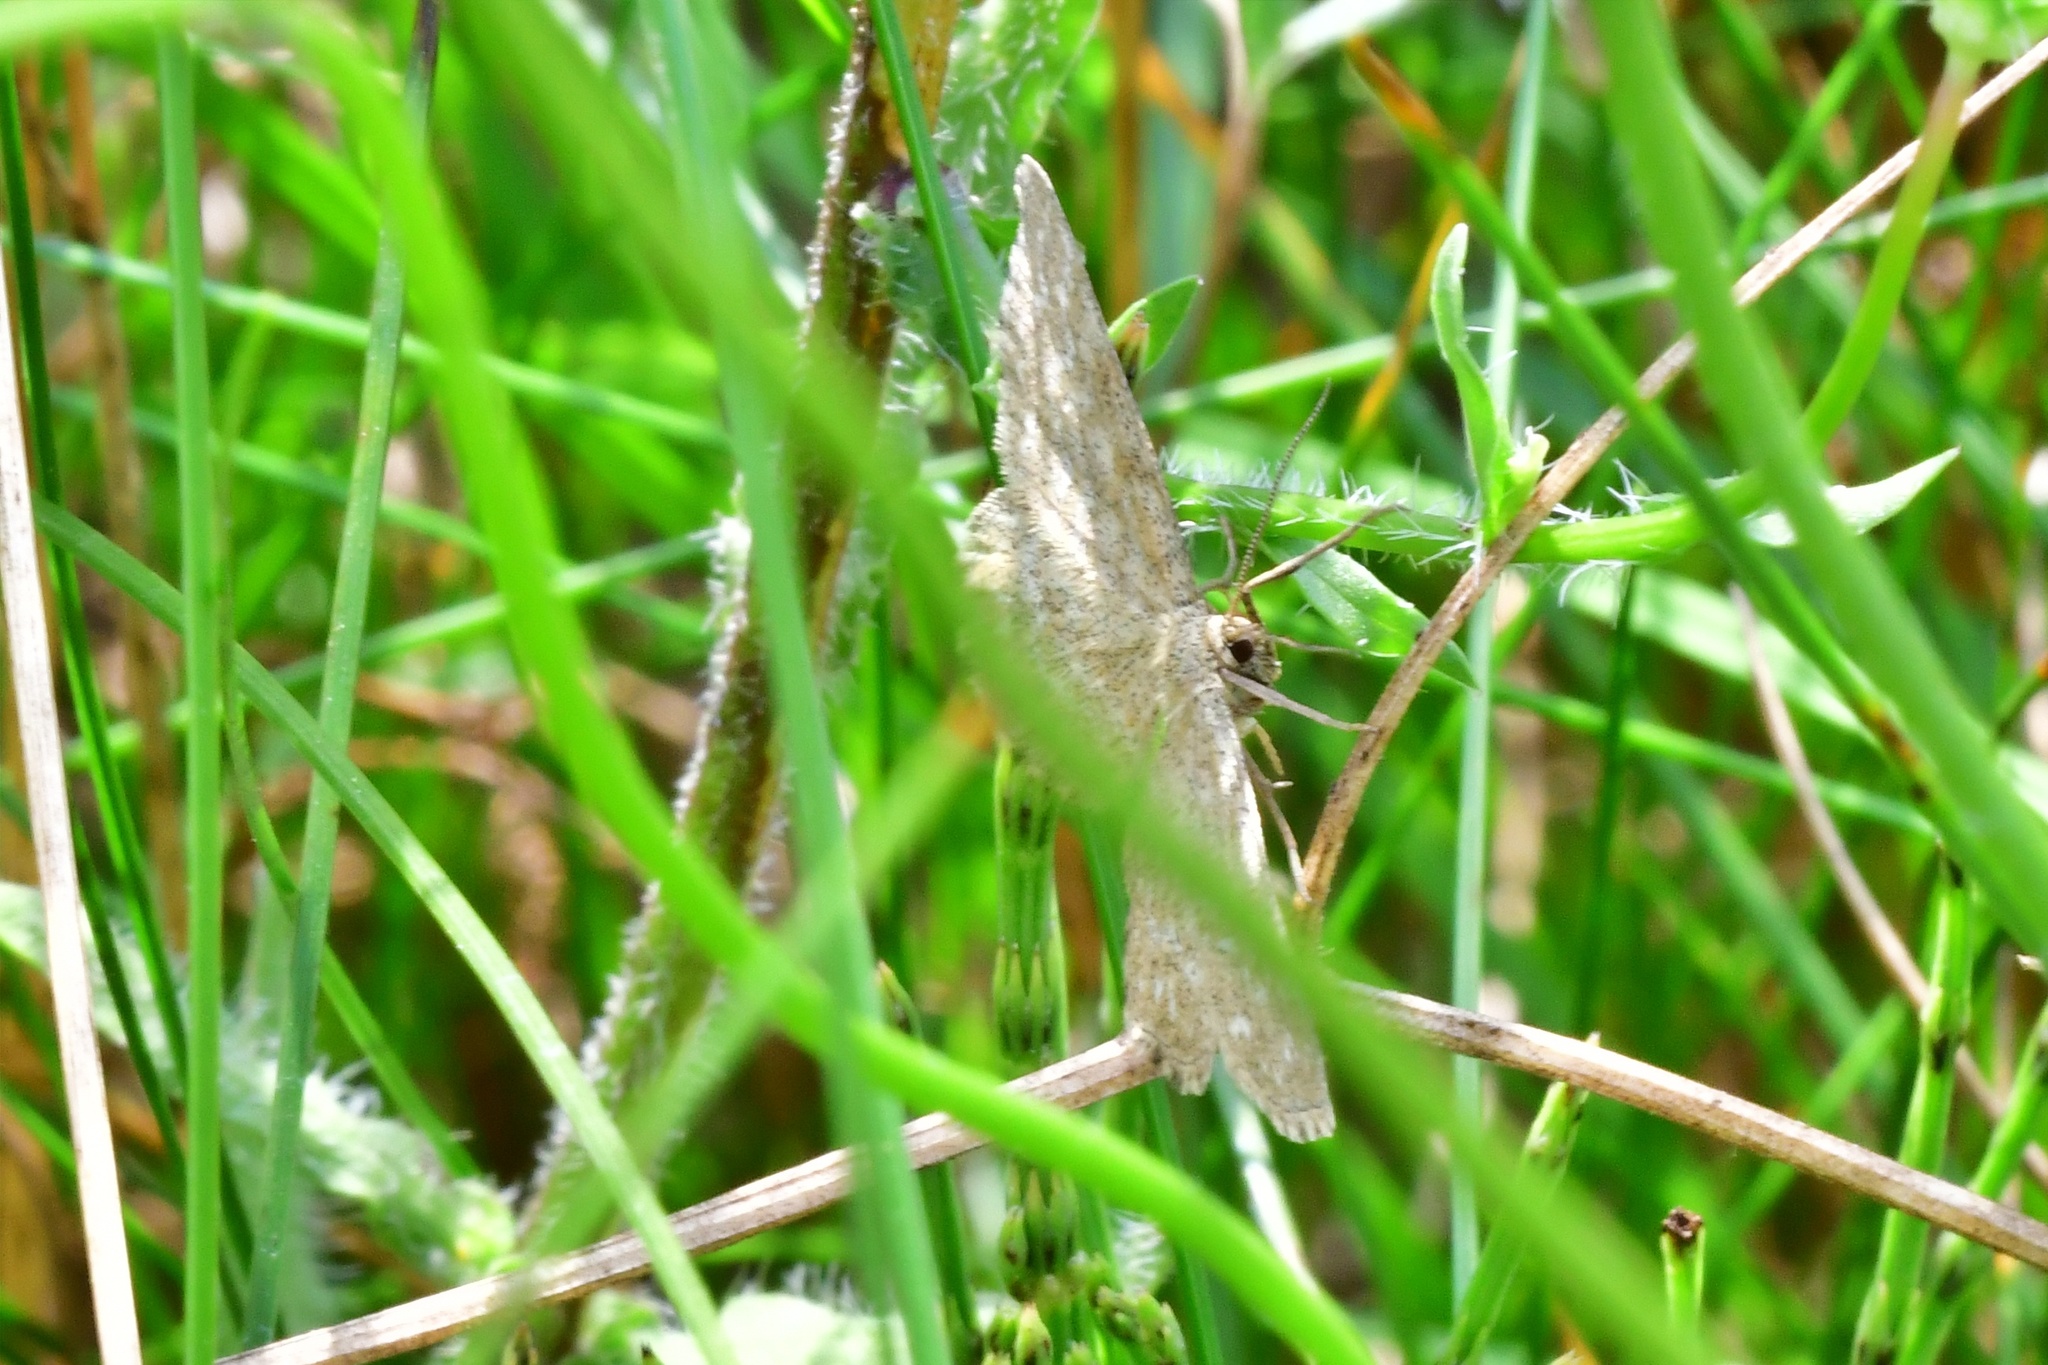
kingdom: Animalia
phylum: Arthropoda
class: Insecta
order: Lepidoptera
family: Geometridae
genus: Scopula
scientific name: Scopula immorata
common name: Lewes wave
